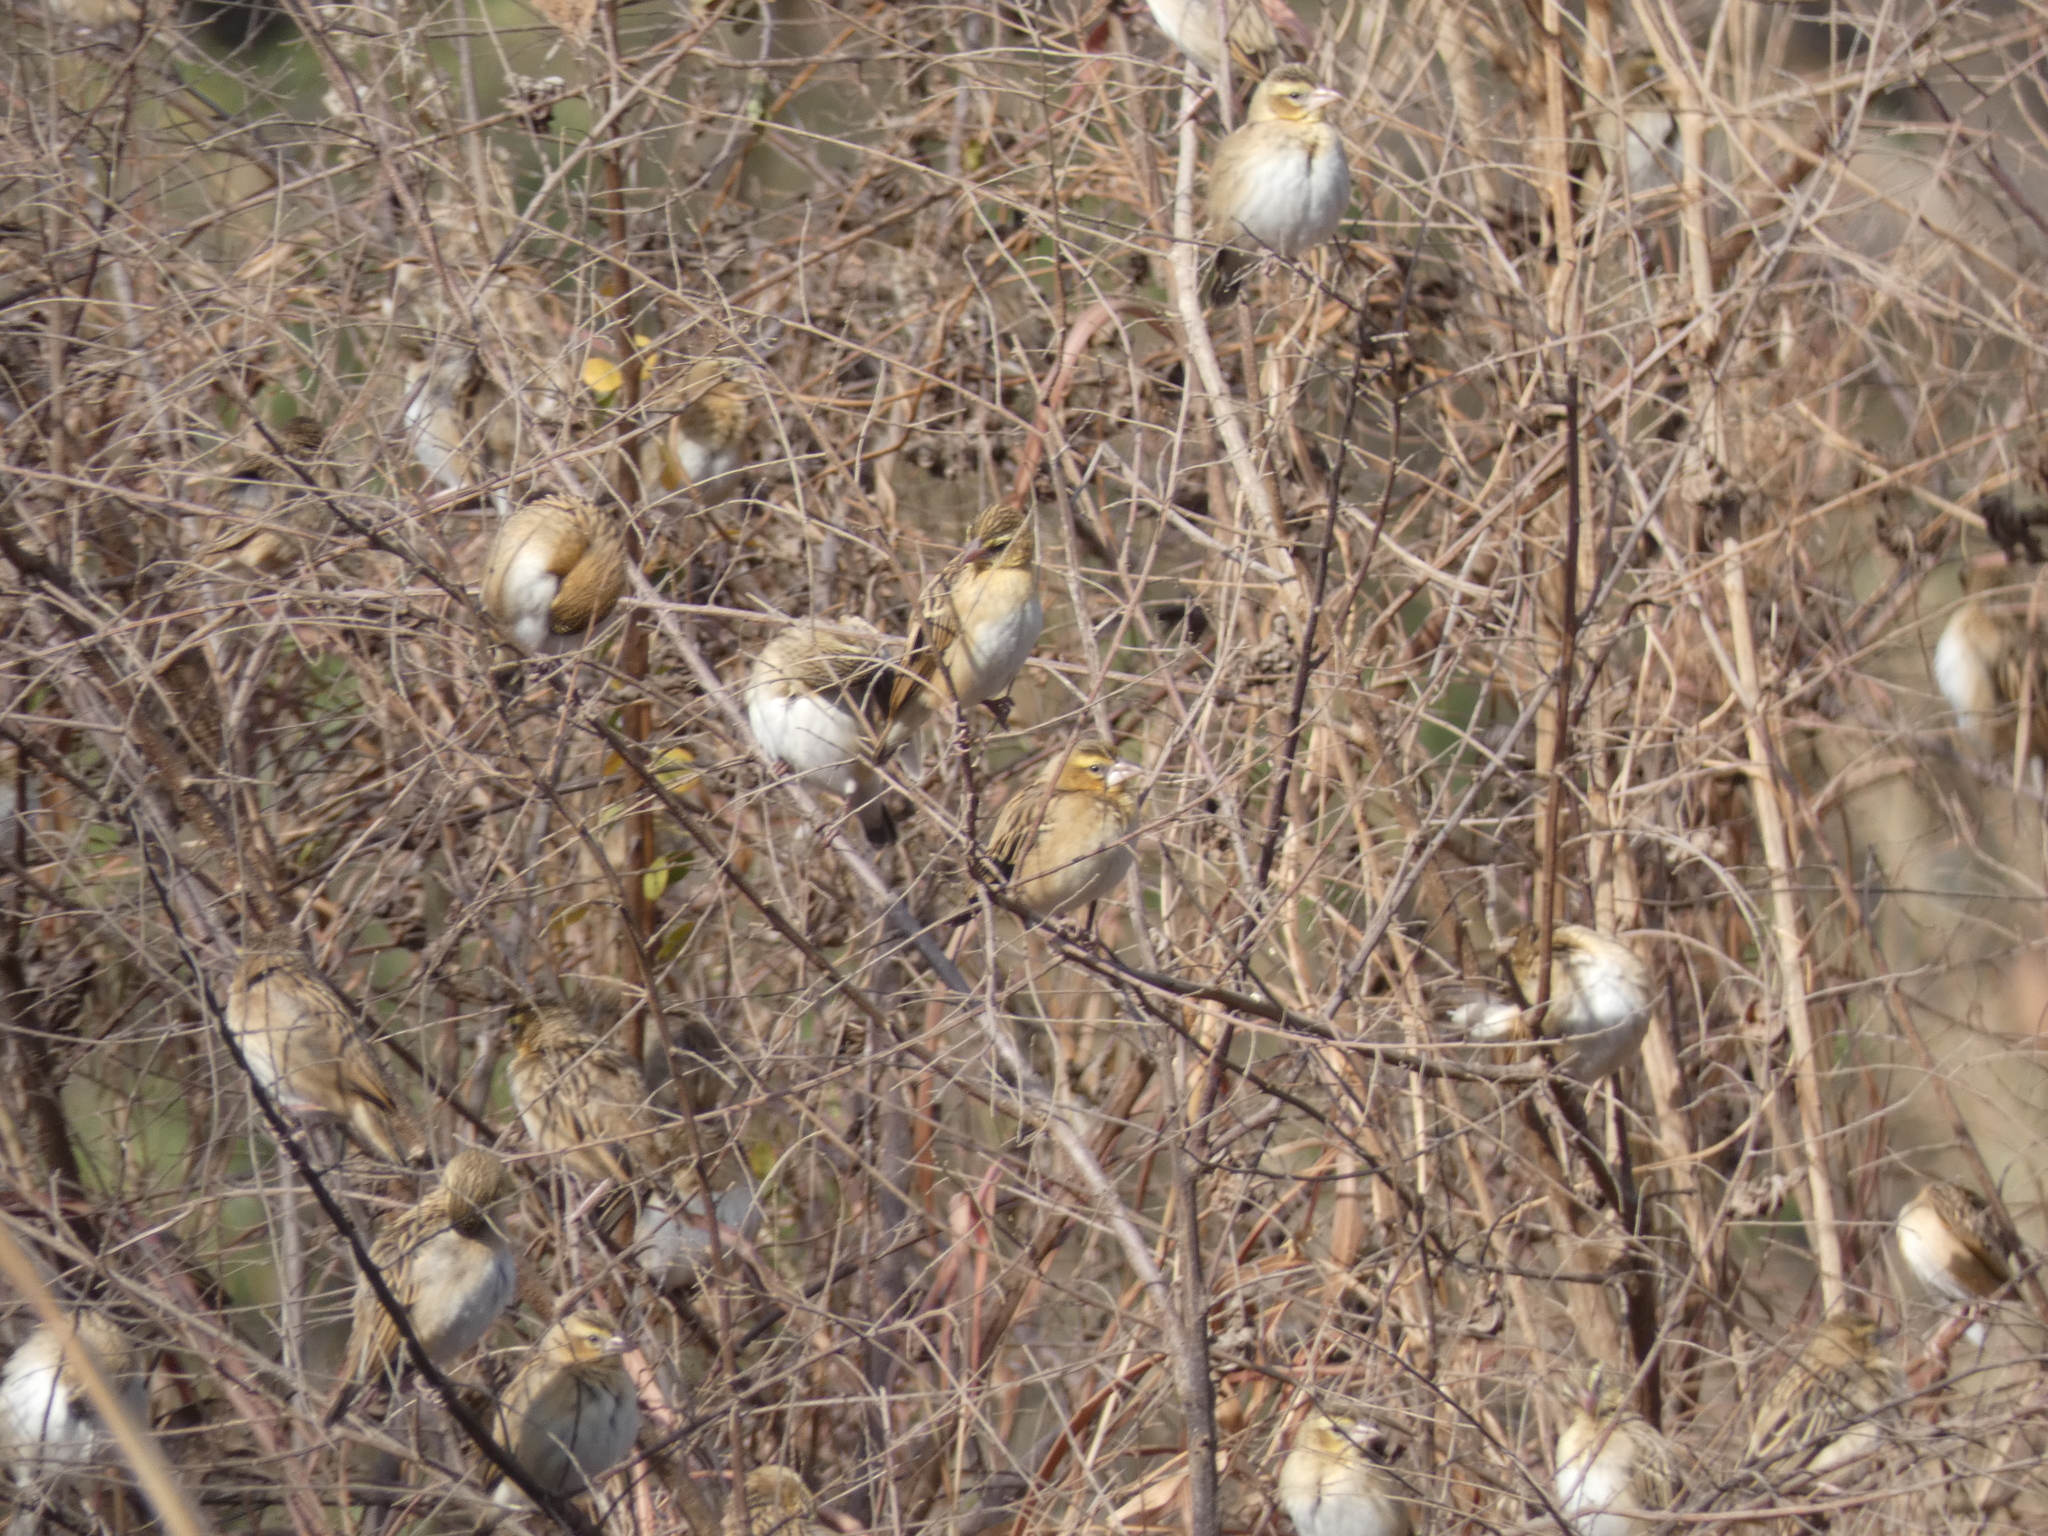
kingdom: Animalia
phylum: Chordata
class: Aves
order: Passeriformes
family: Ploceidae
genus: Euplectes
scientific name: Euplectes hordeaceus
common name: Black-winged red bishop
